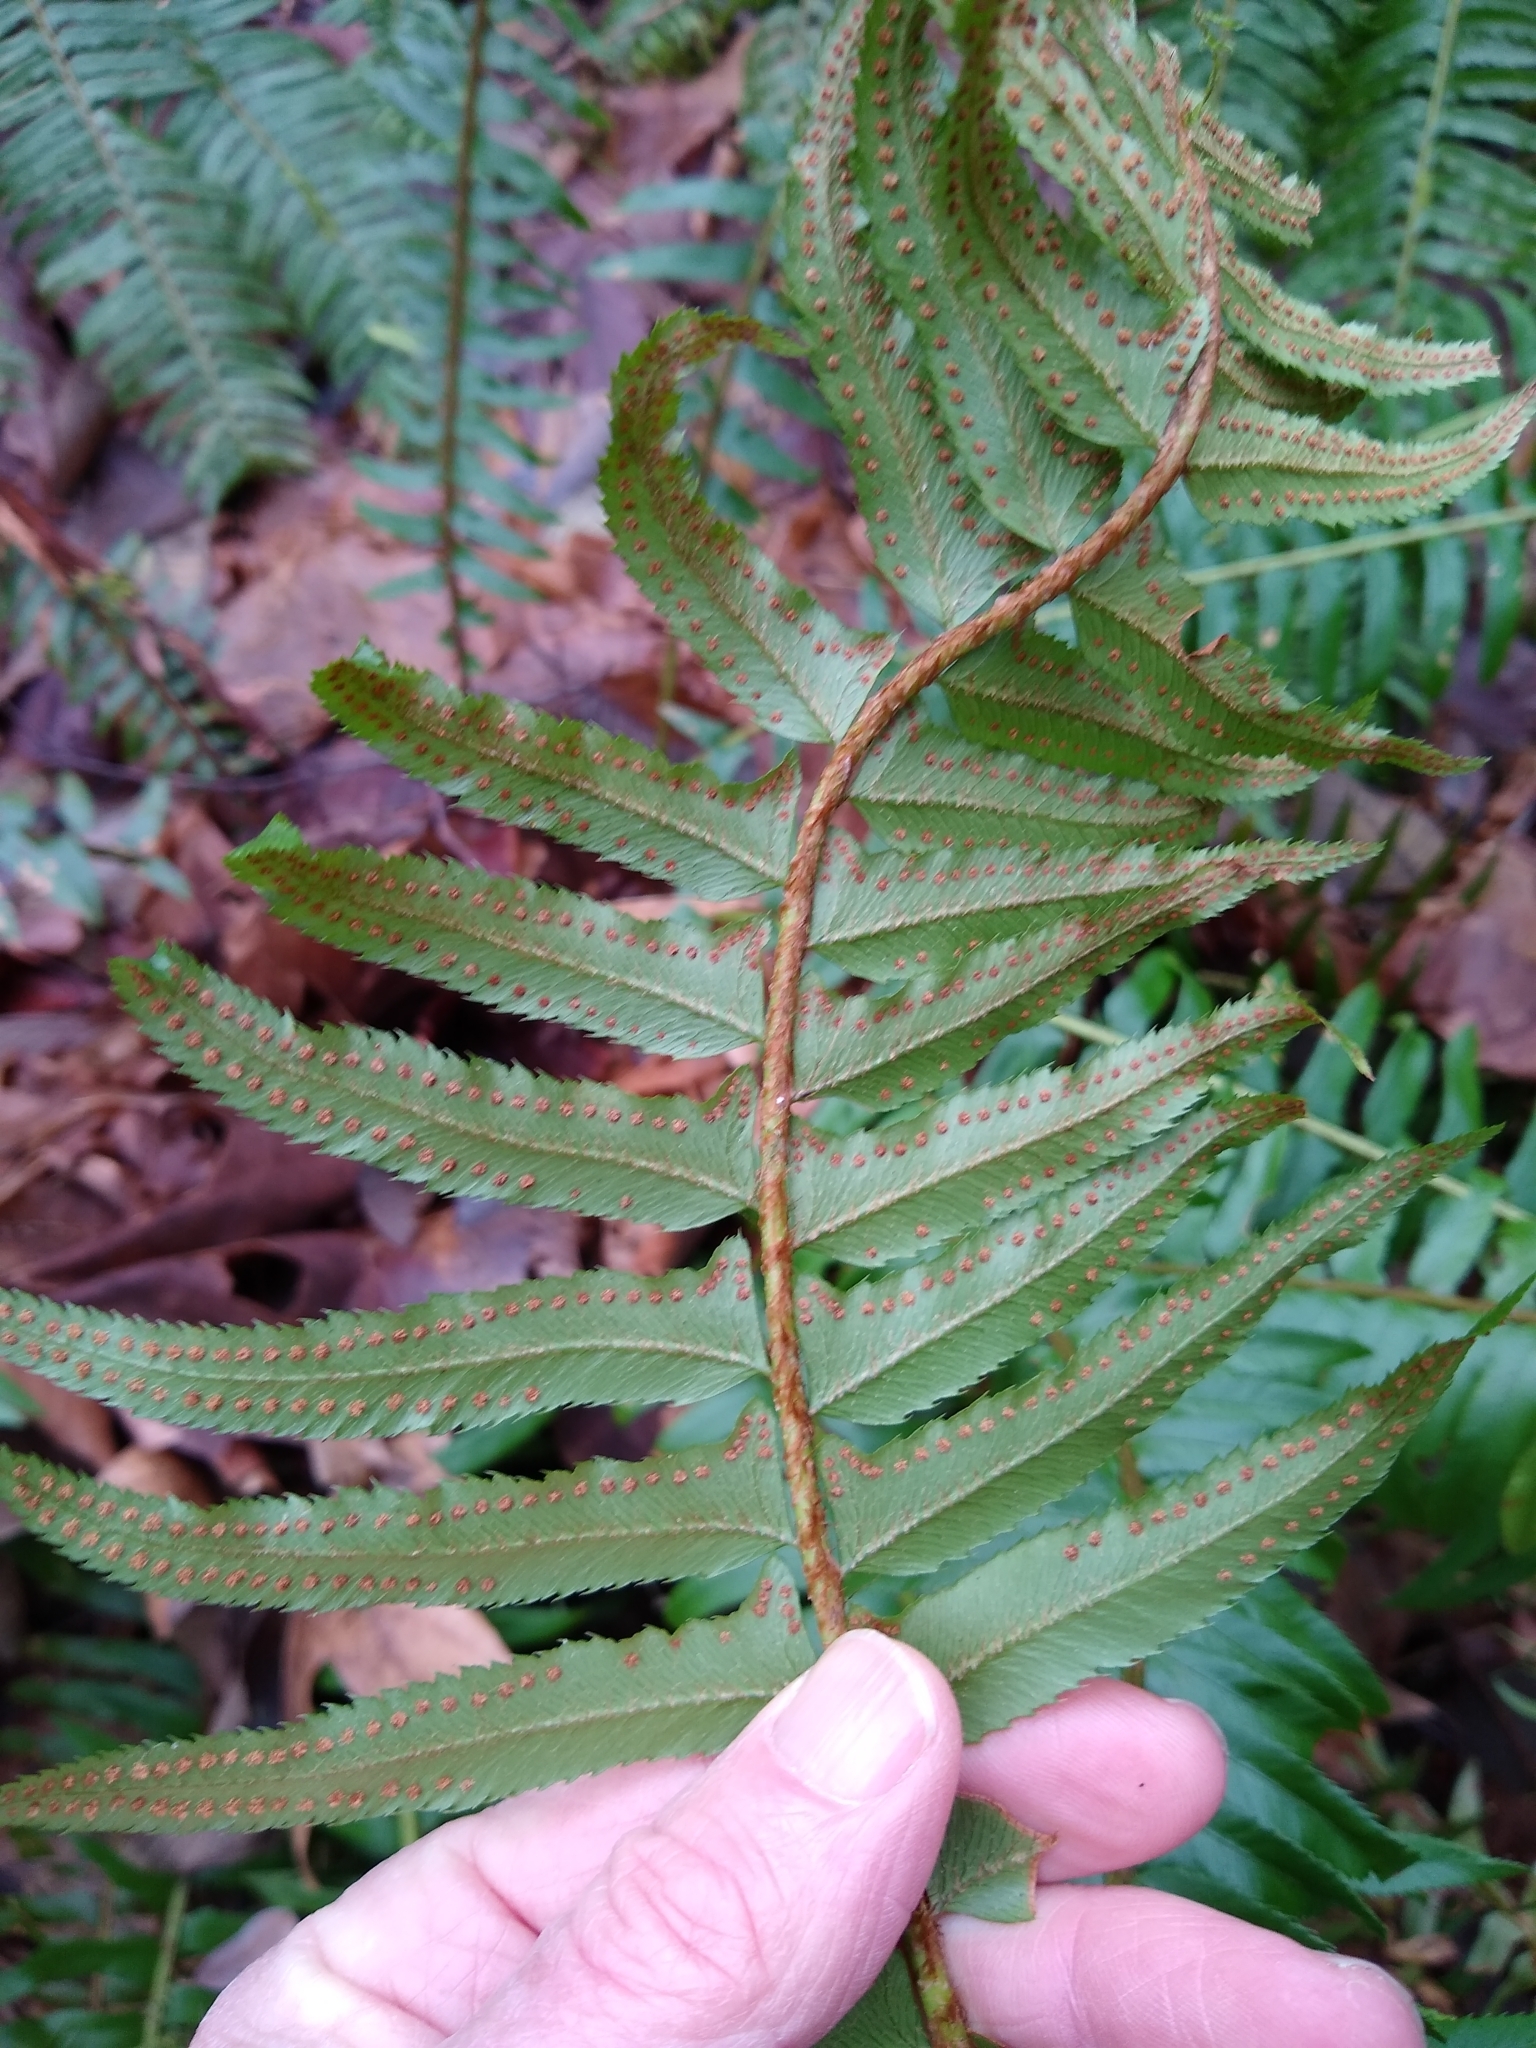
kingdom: Plantae
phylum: Tracheophyta
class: Polypodiopsida
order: Polypodiales
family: Dryopteridaceae
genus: Polystichum
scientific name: Polystichum munitum
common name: Western sword-fern
